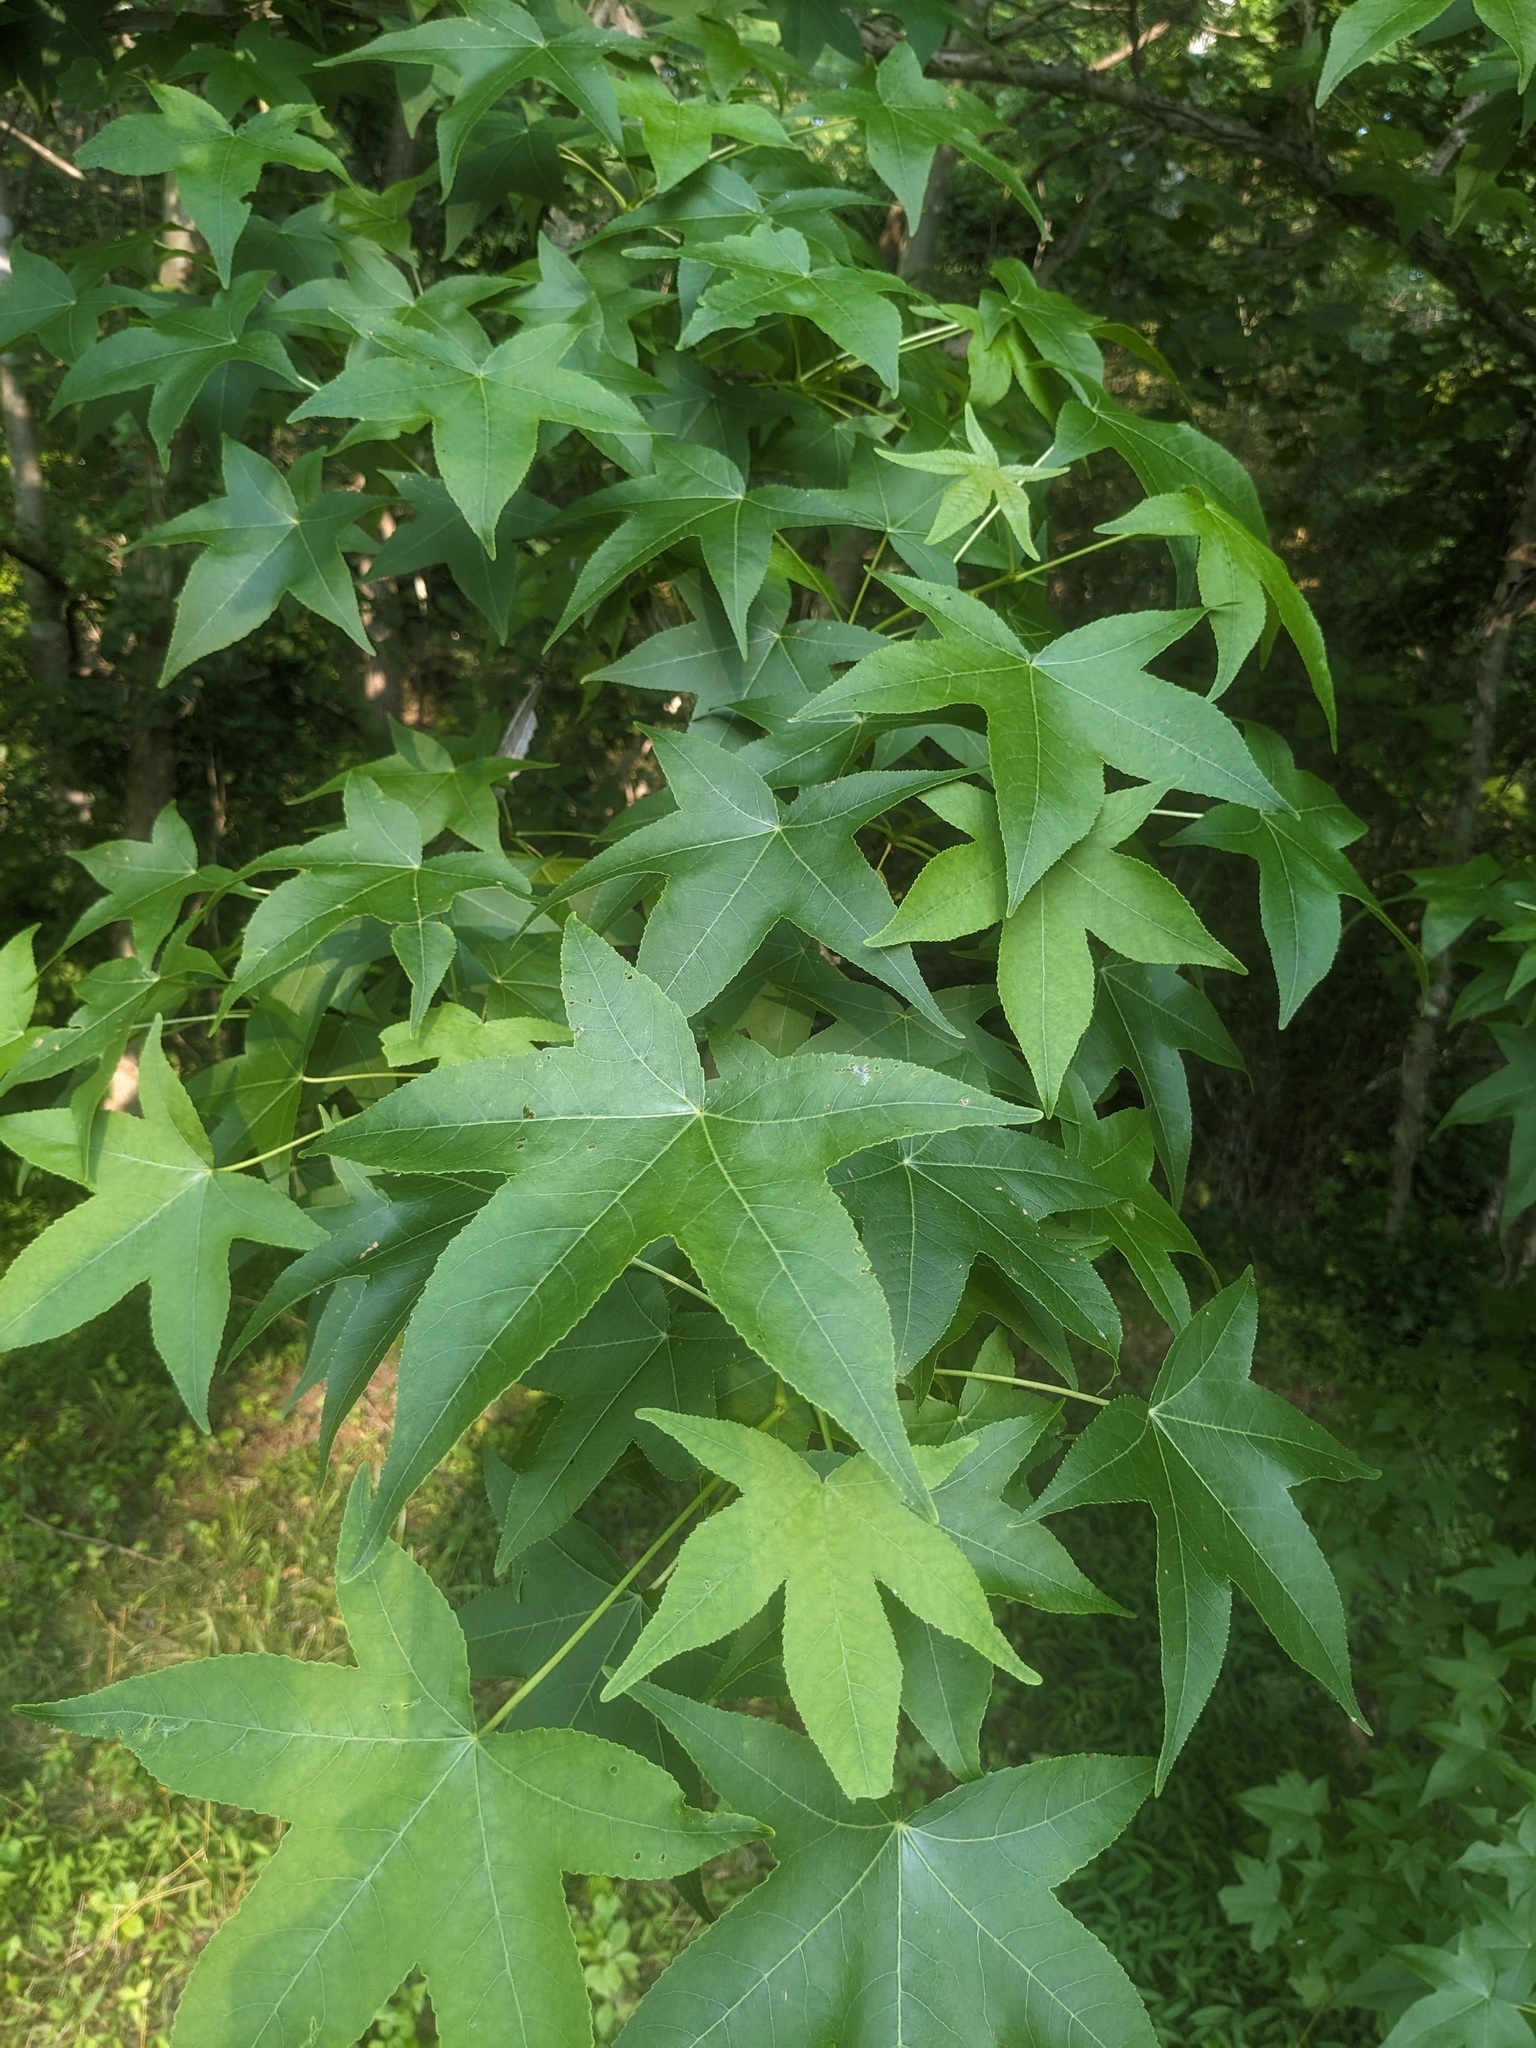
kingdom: Plantae
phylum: Tracheophyta
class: Magnoliopsida
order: Saxifragales
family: Altingiaceae
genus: Liquidambar
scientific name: Liquidambar styraciflua
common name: Sweet gum
